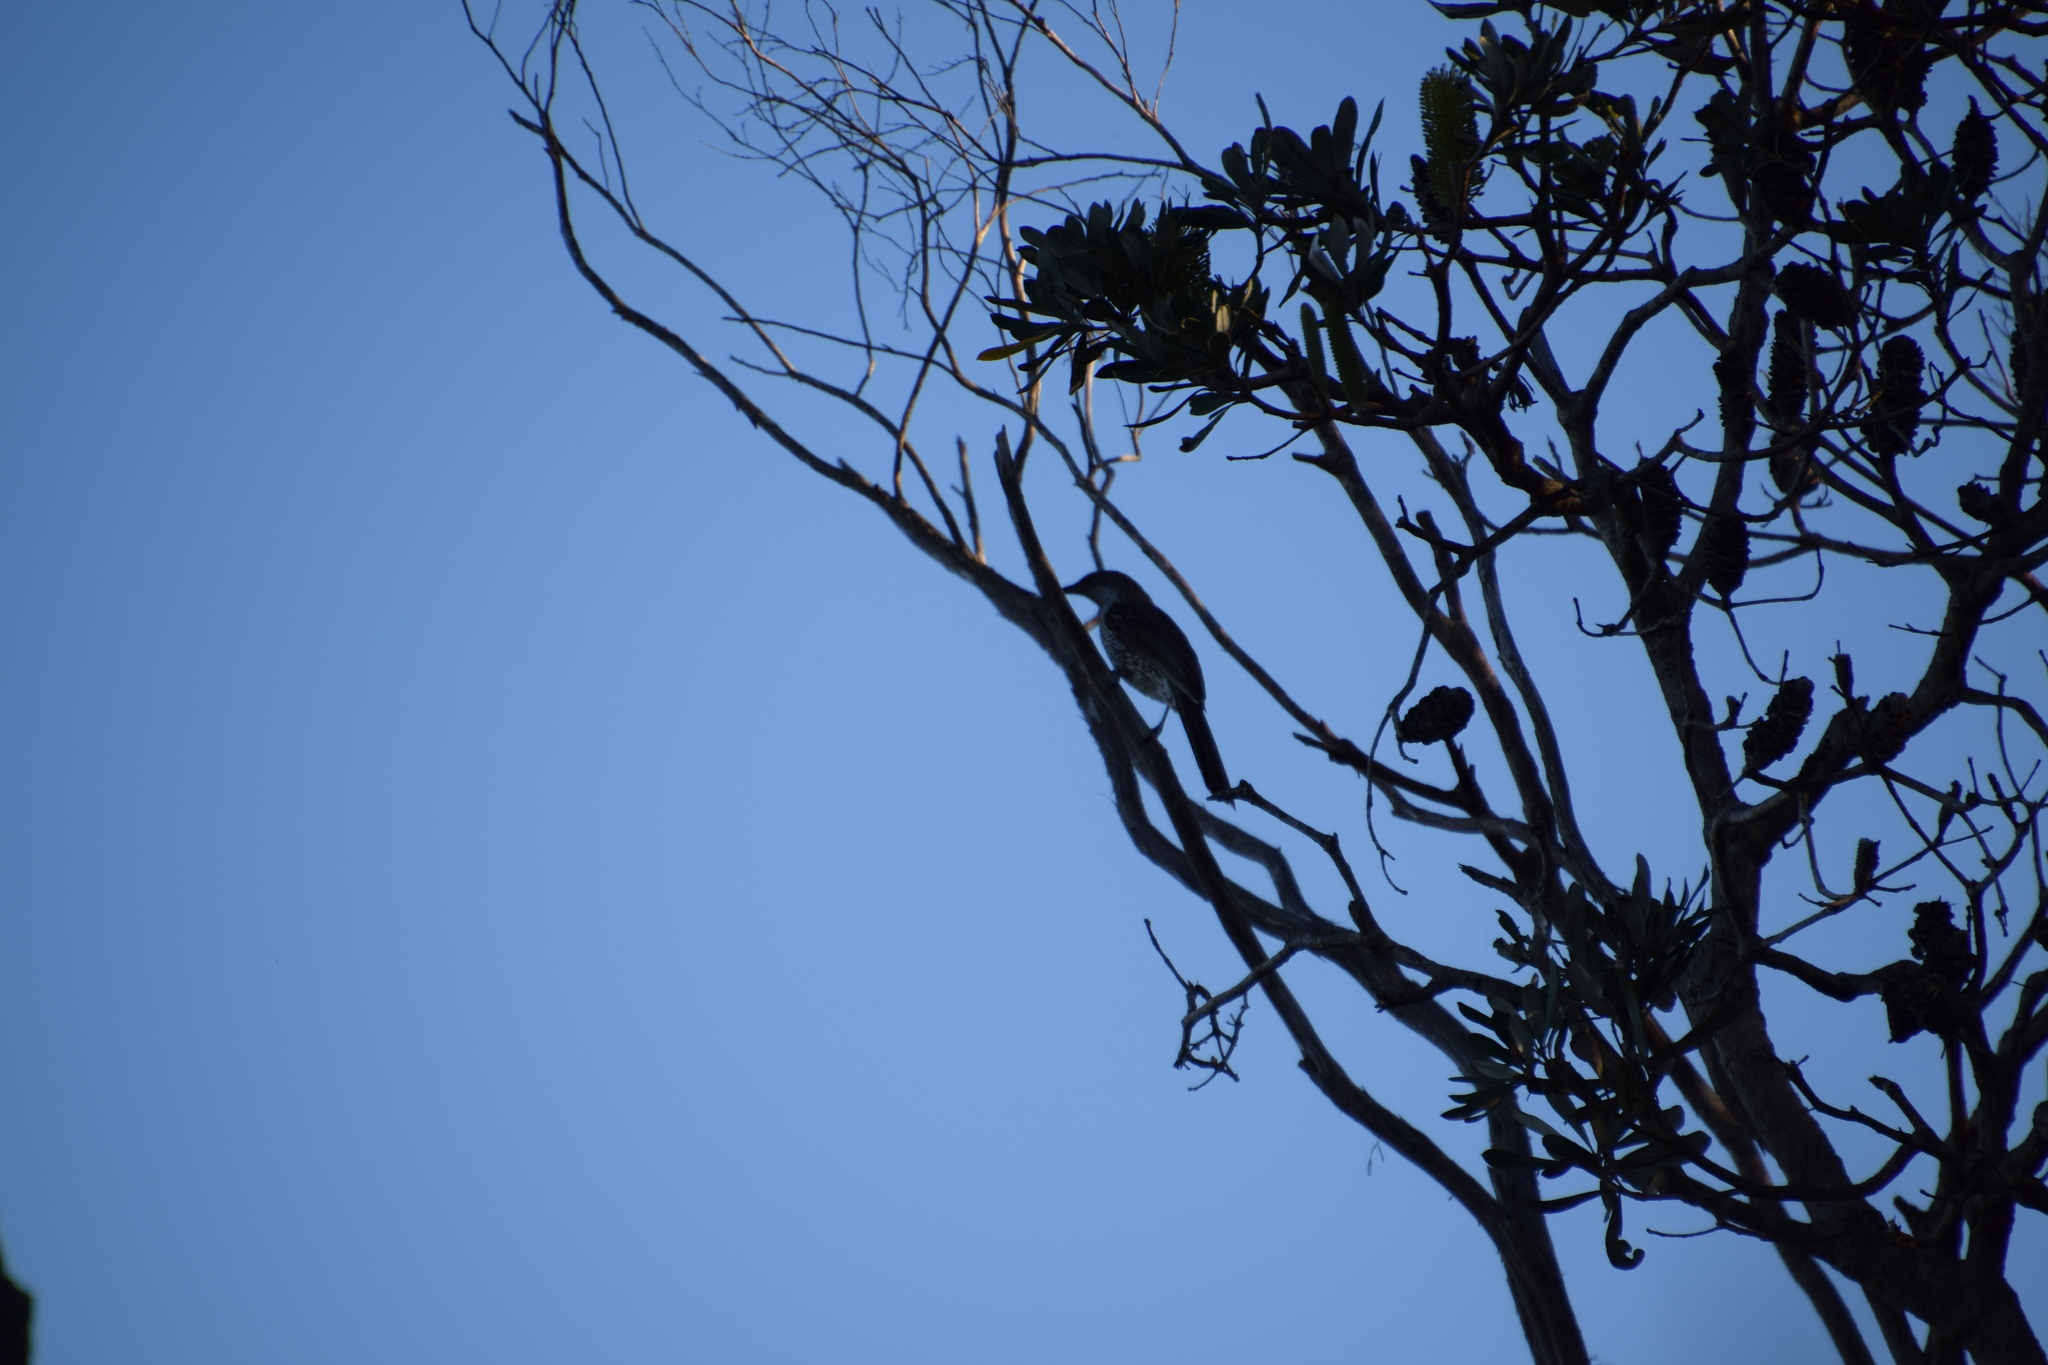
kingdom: Animalia
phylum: Chordata
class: Aves
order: Passeriformes
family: Meliphagidae
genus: Anthochaera
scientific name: Anthochaera chrysoptera
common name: Little wattlebird
